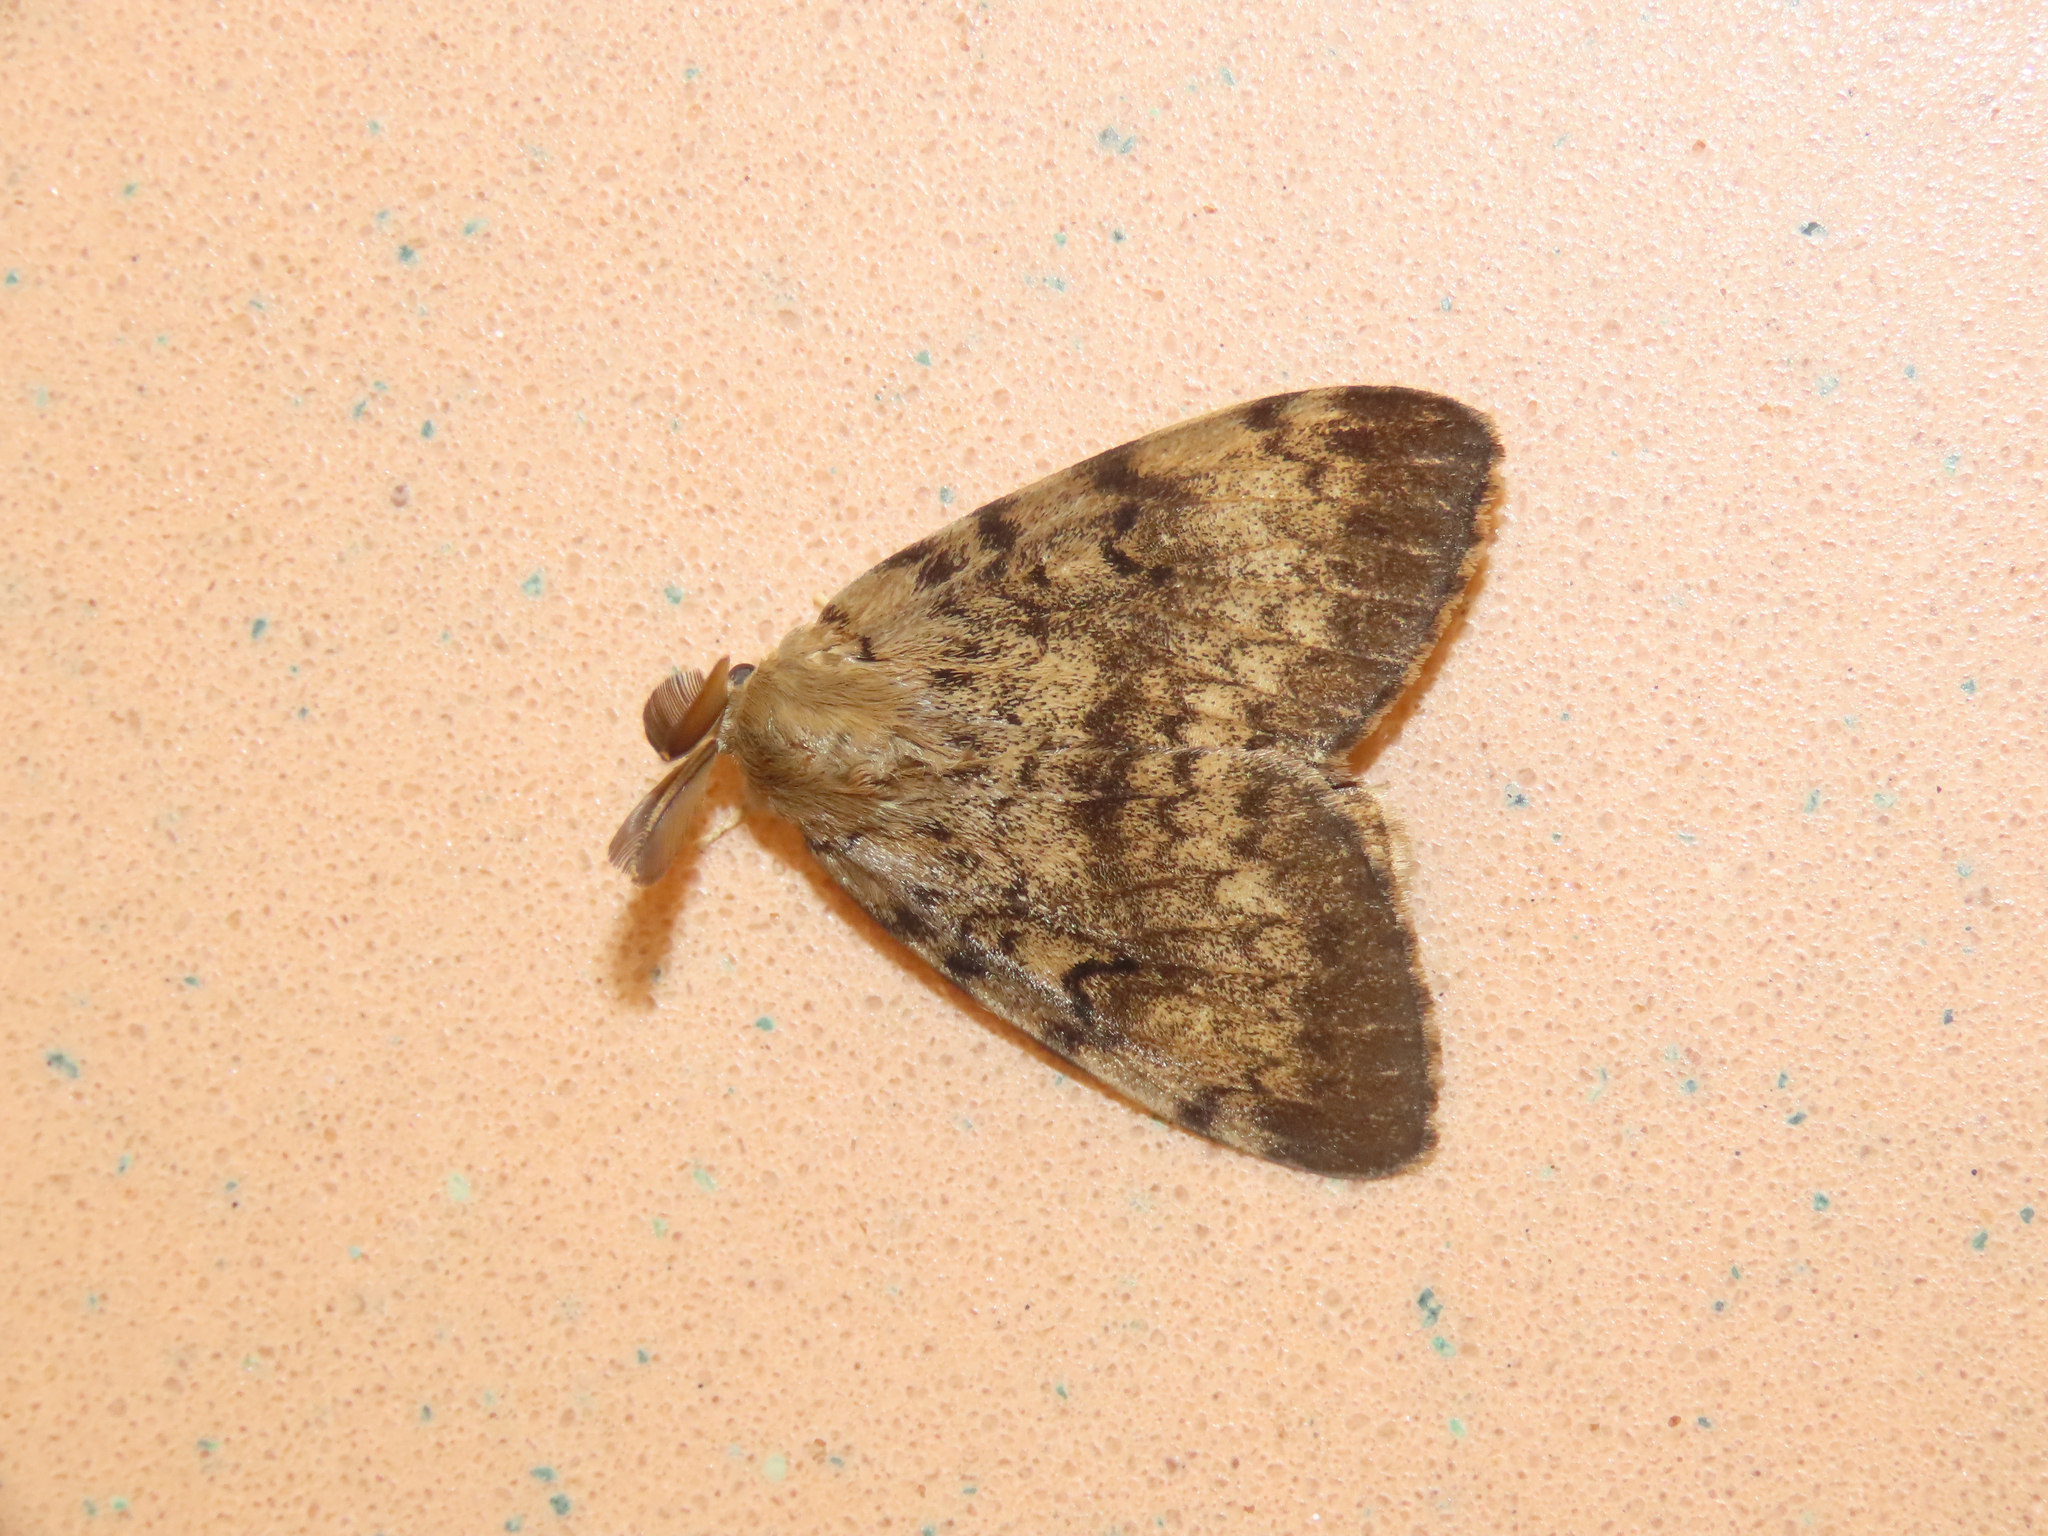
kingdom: Animalia
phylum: Arthropoda
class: Insecta
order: Lepidoptera
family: Erebidae
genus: Lymantria
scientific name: Lymantria dispar
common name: Gypsy moth
